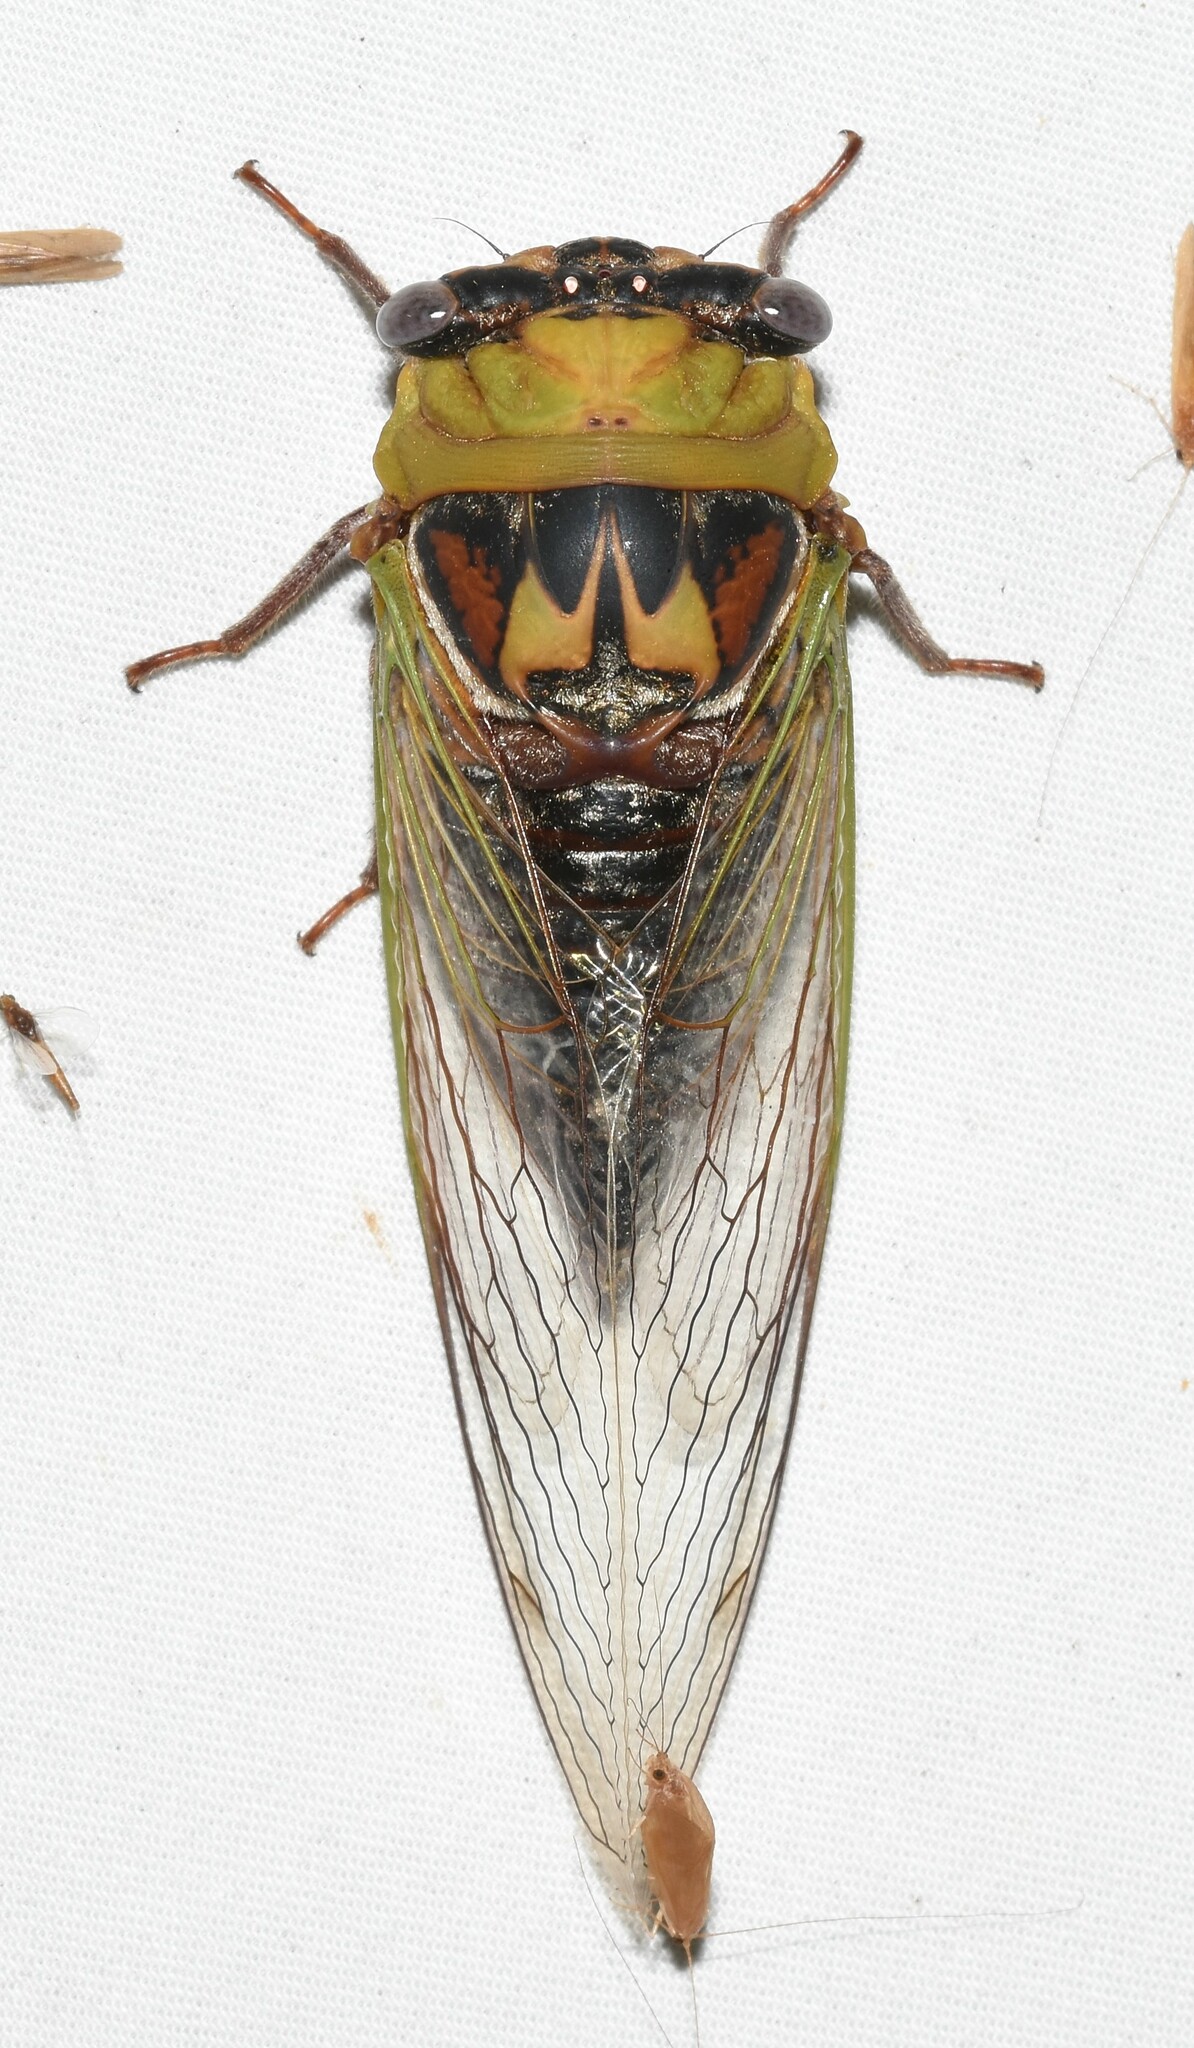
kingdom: Animalia
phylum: Arthropoda
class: Insecta
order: Hemiptera
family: Cicadidae
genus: Megatibicen
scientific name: Megatibicen pronotalis
